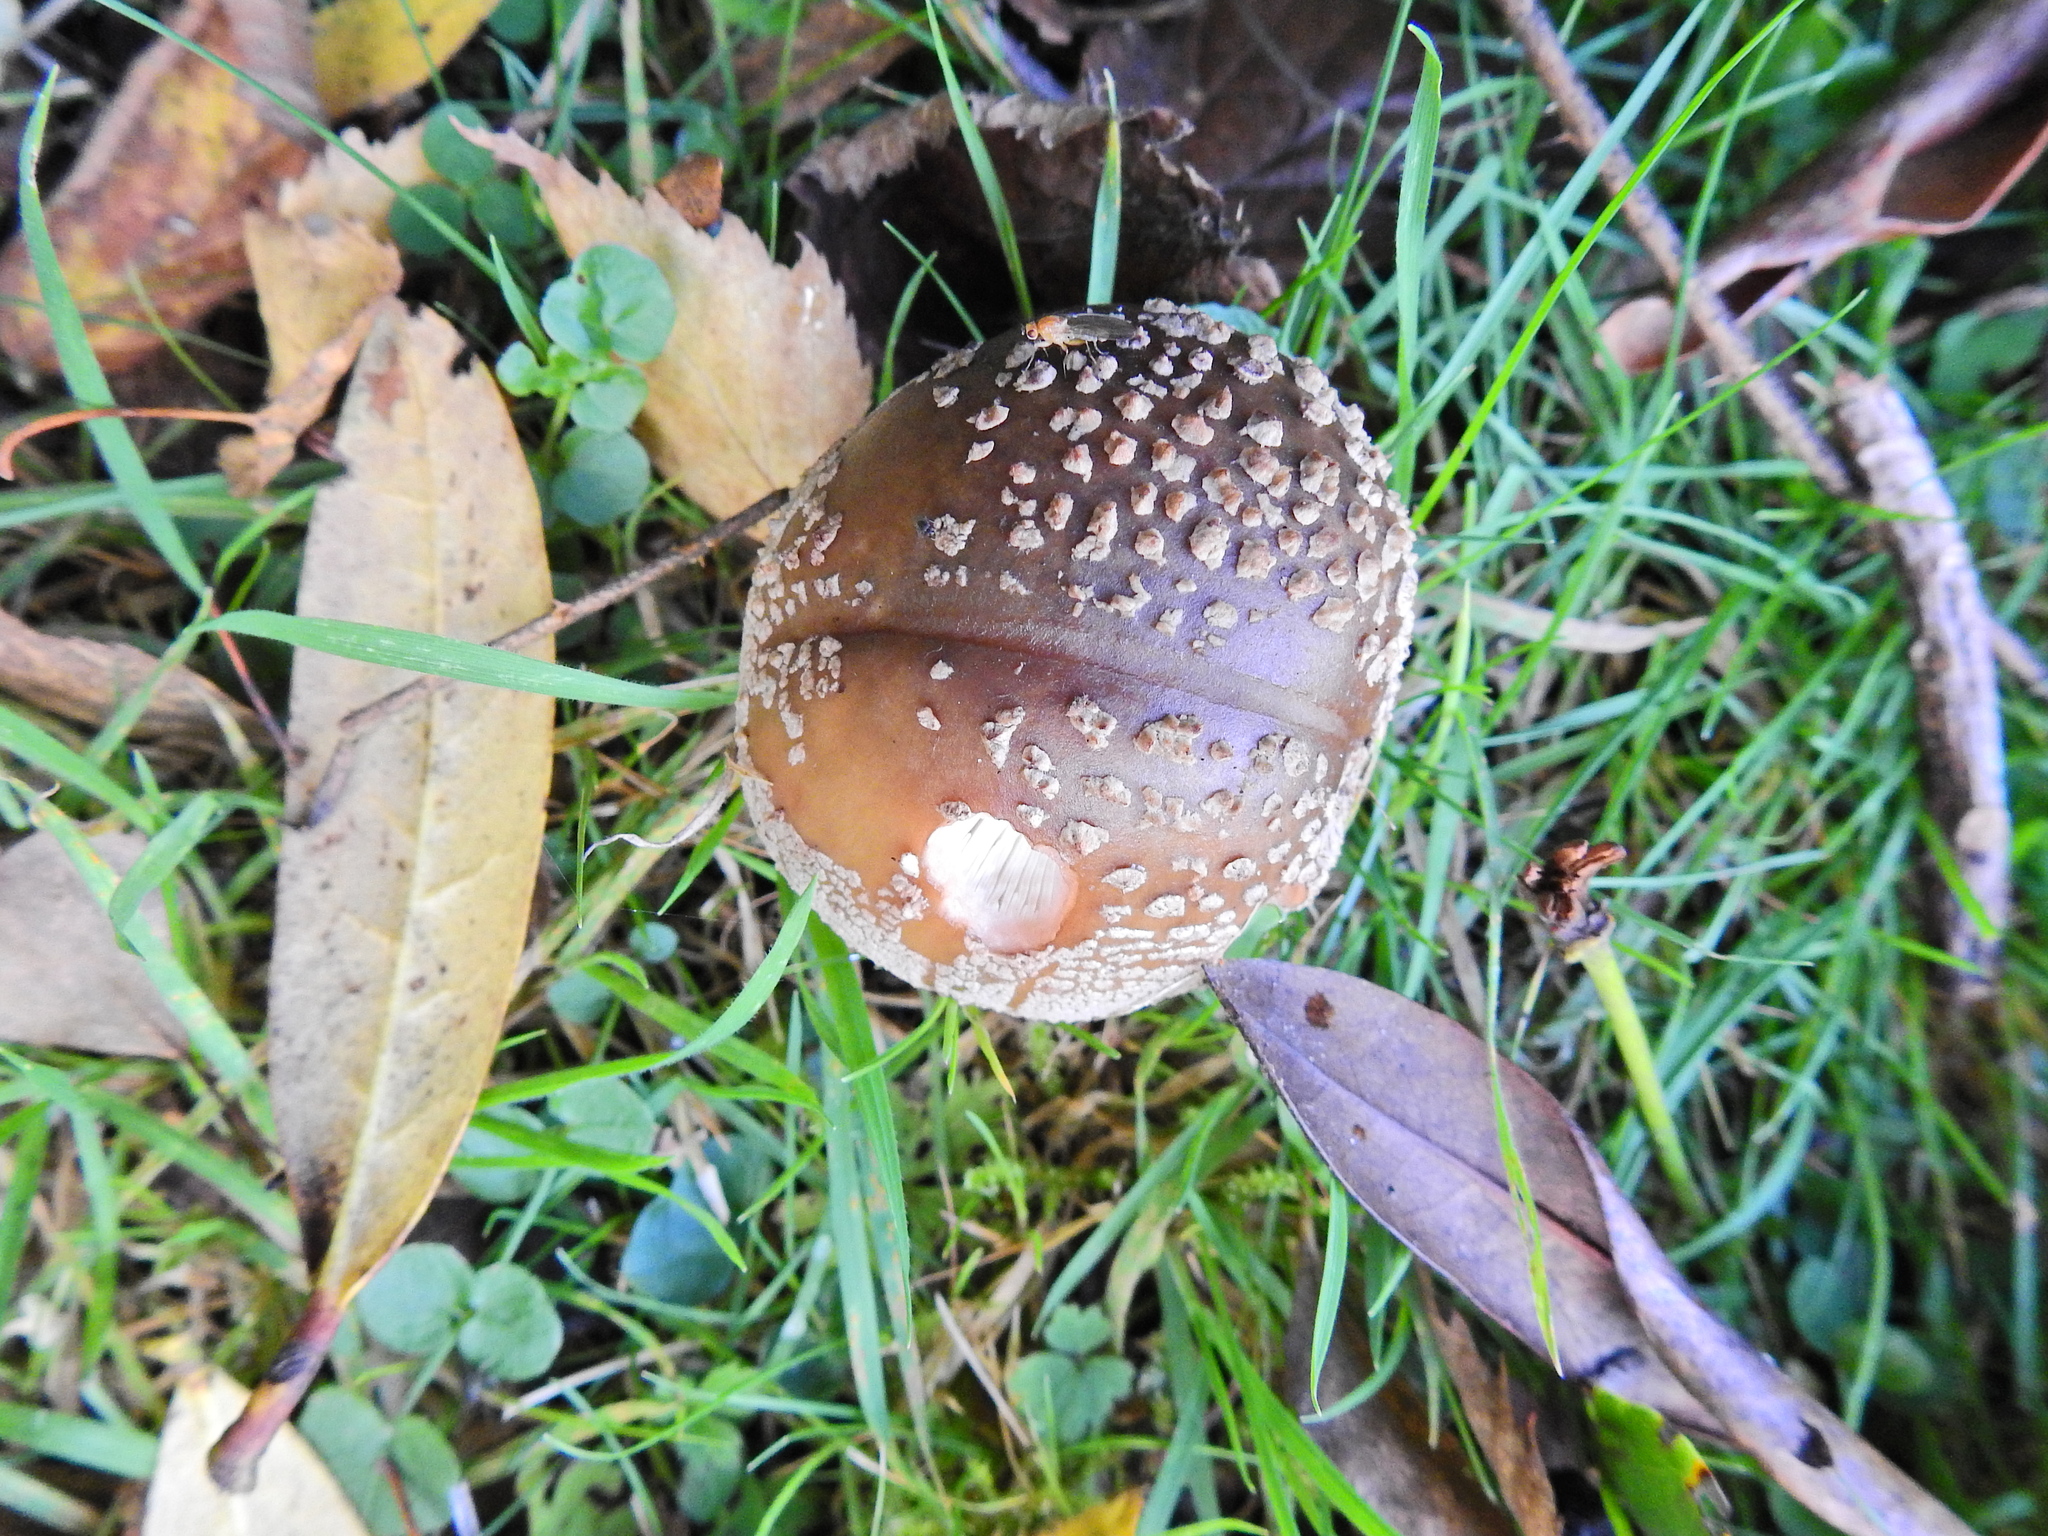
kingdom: Fungi
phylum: Basidiomycota
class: Agaricomycetes
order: Agaricales
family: Amanitaceae
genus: Amanita
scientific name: Amanita rubescens
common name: Blusher
